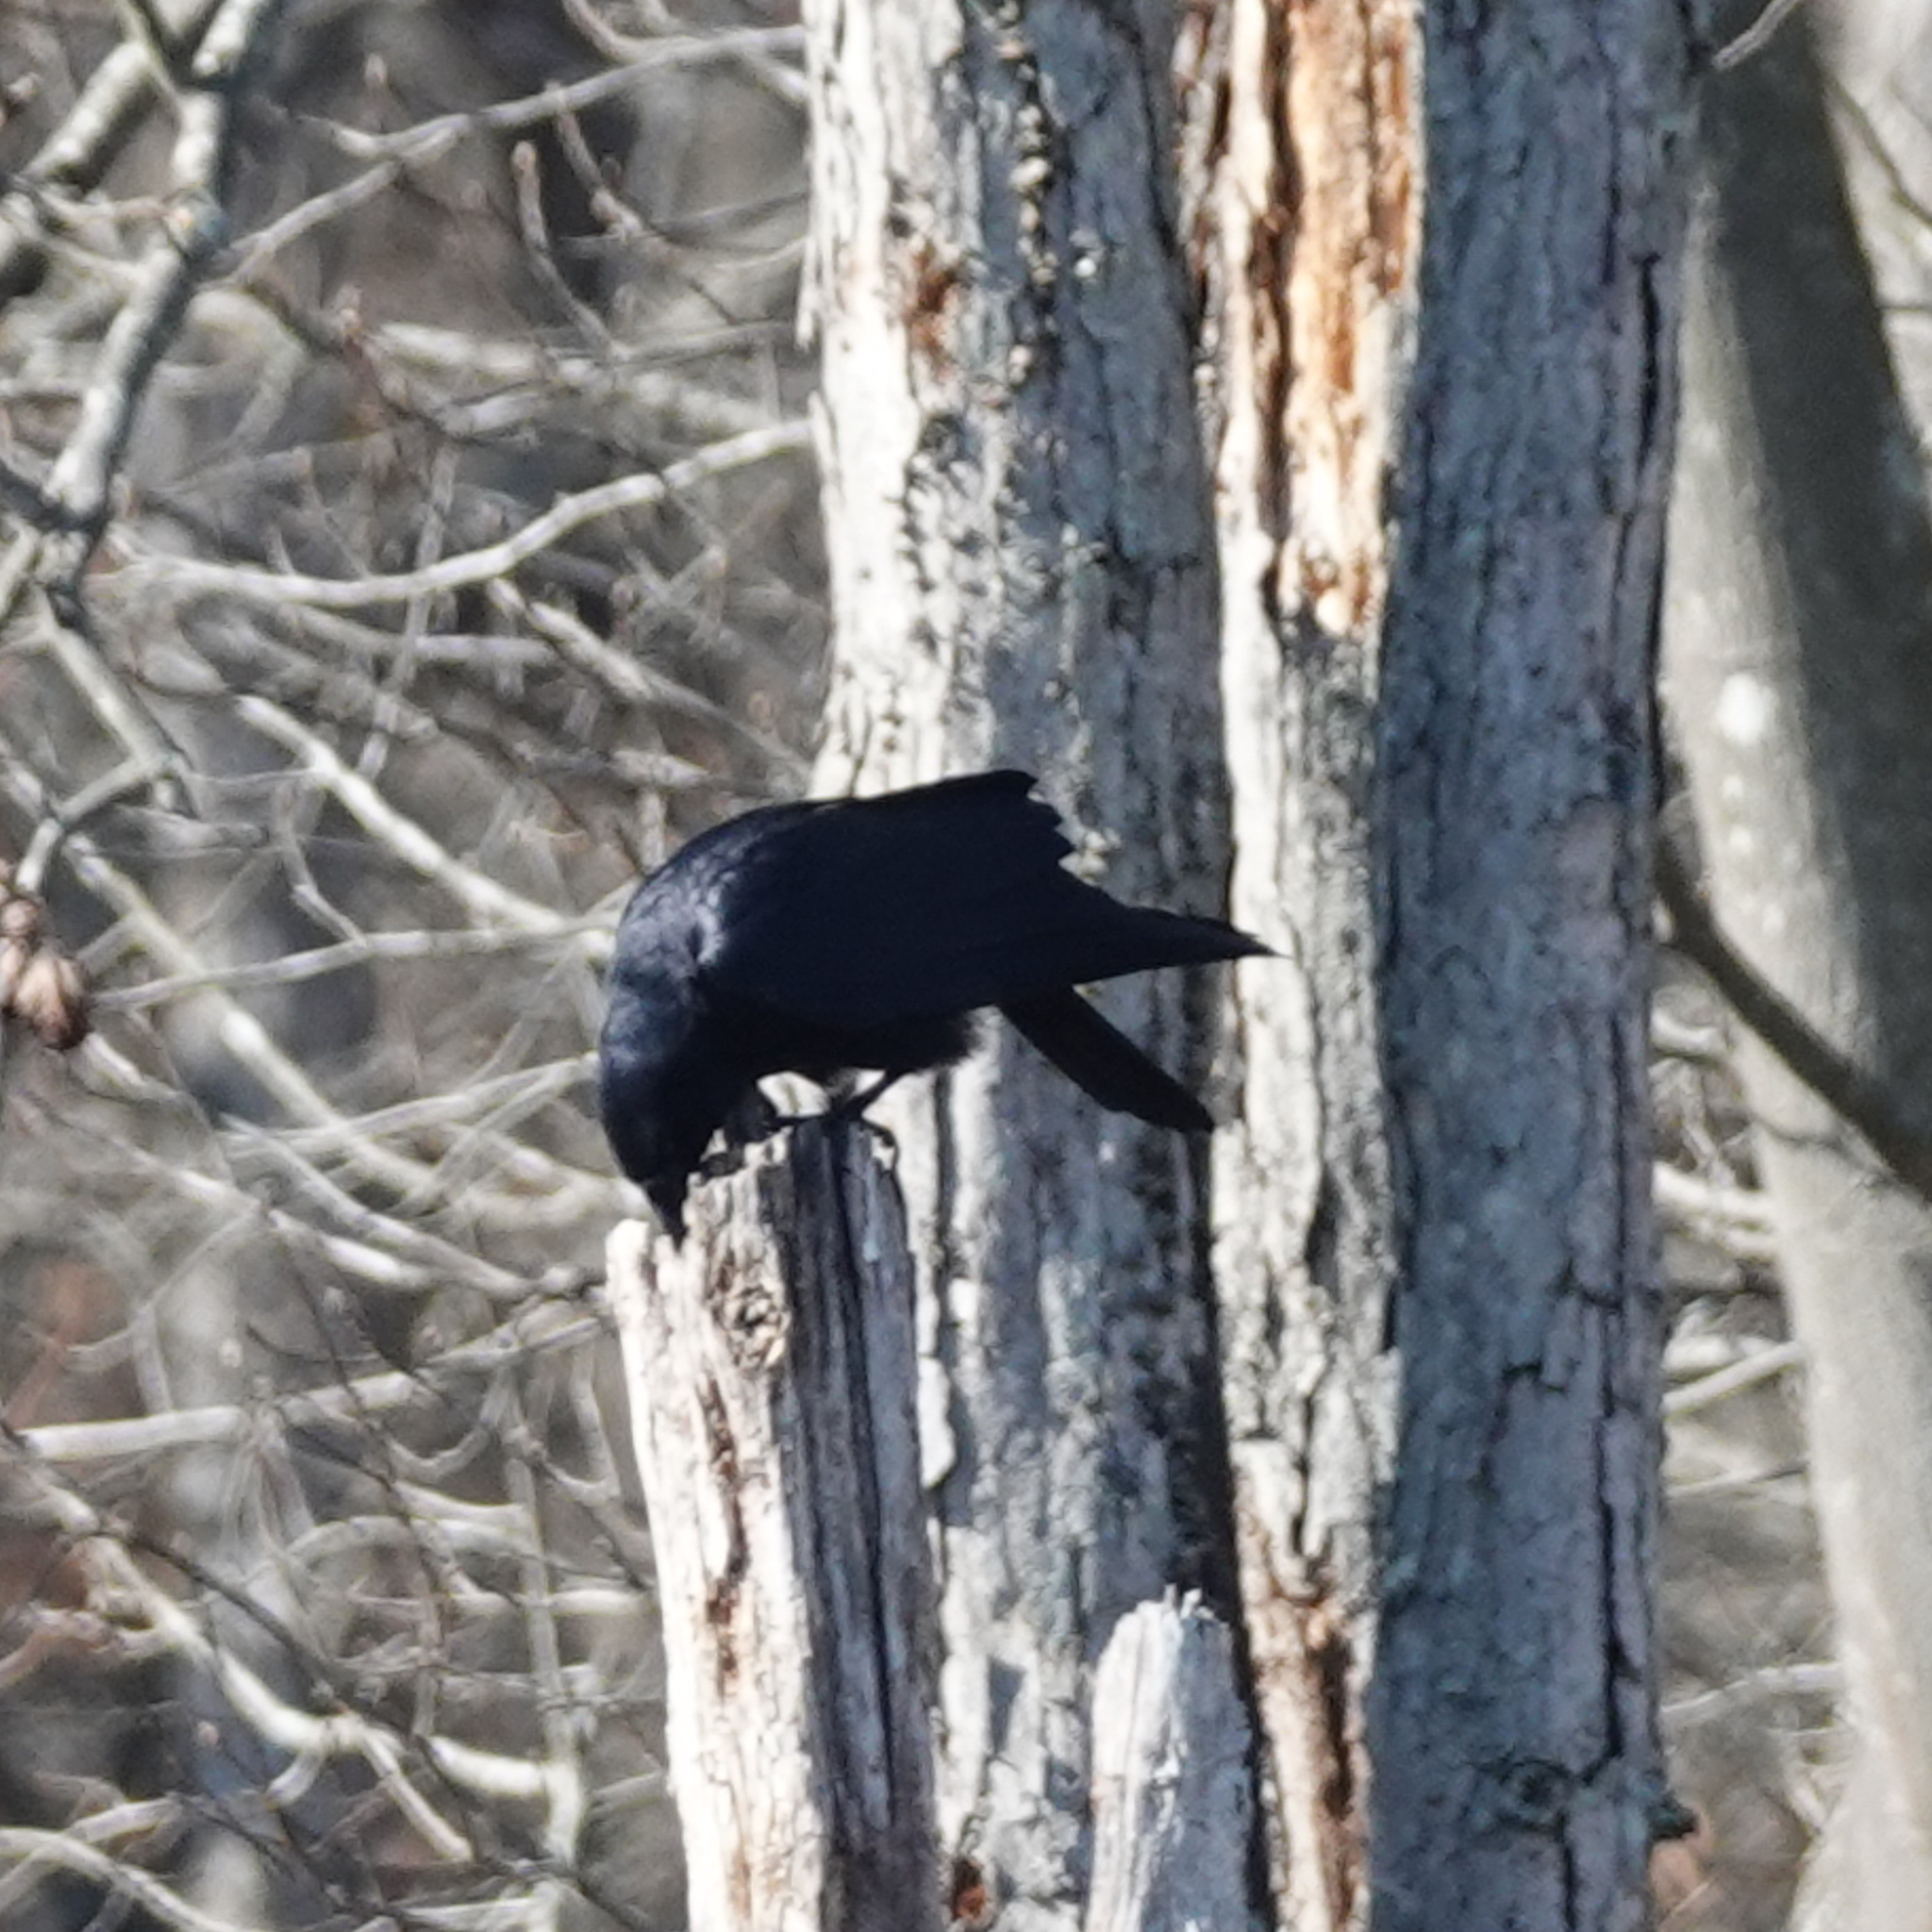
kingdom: Animalia
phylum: Chordata
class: Aves
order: Passeriformes
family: Corvidae
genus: Corvus
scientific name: Corvus brachyrhynchos
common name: American crow
